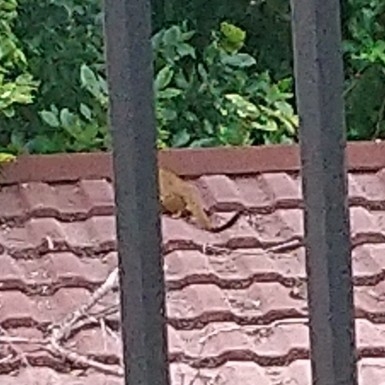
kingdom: Animalia
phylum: Chordata
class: Mammalia
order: Carnivora
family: Herpestidae
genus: Galerella
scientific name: Galerella sanguinea
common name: Slender mongoose
